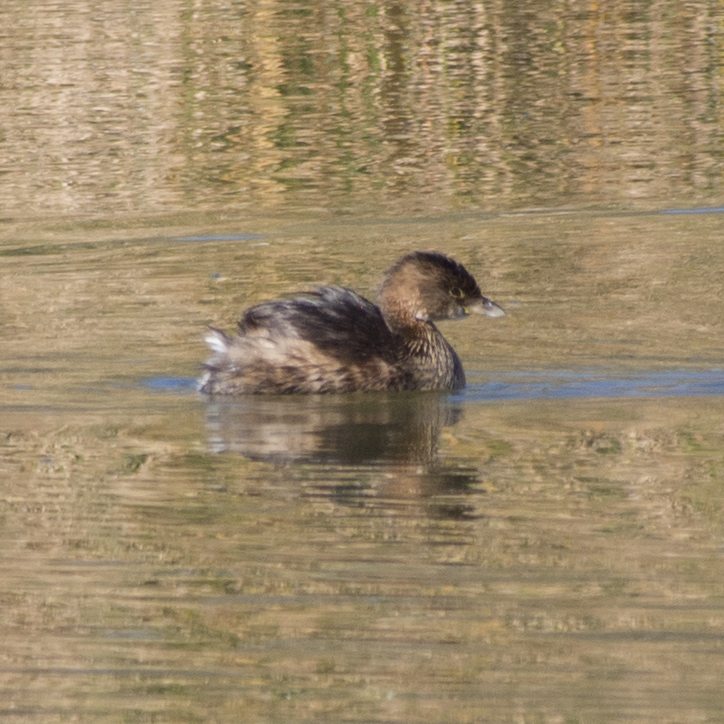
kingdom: Animalia
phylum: Chordata
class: Aves
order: Podicipediformes
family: Podicipedidae
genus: Podilymbus
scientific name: Podilymbus podiceps
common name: Pied-billed grebe
